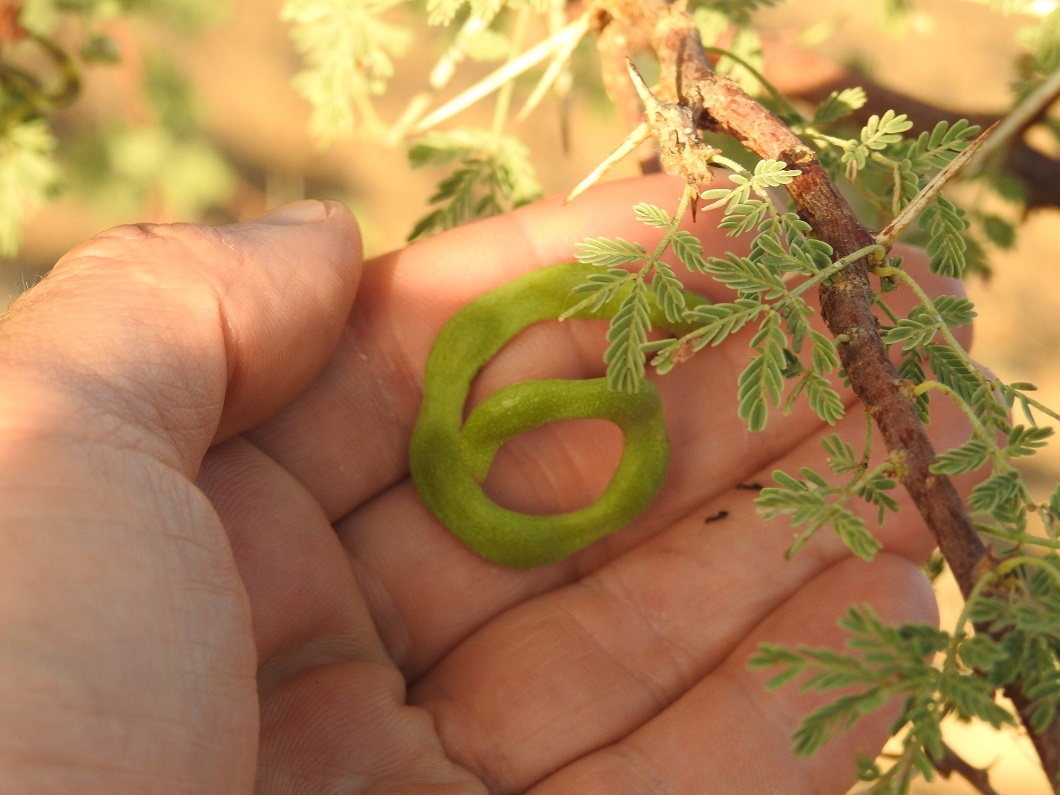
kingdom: Plantae
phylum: Tracheophyta
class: Magnoliopsida
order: Fabales
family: Fabaceae
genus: Vachellia
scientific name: Vachellia tortilis
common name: Umbrella thorn acacia
